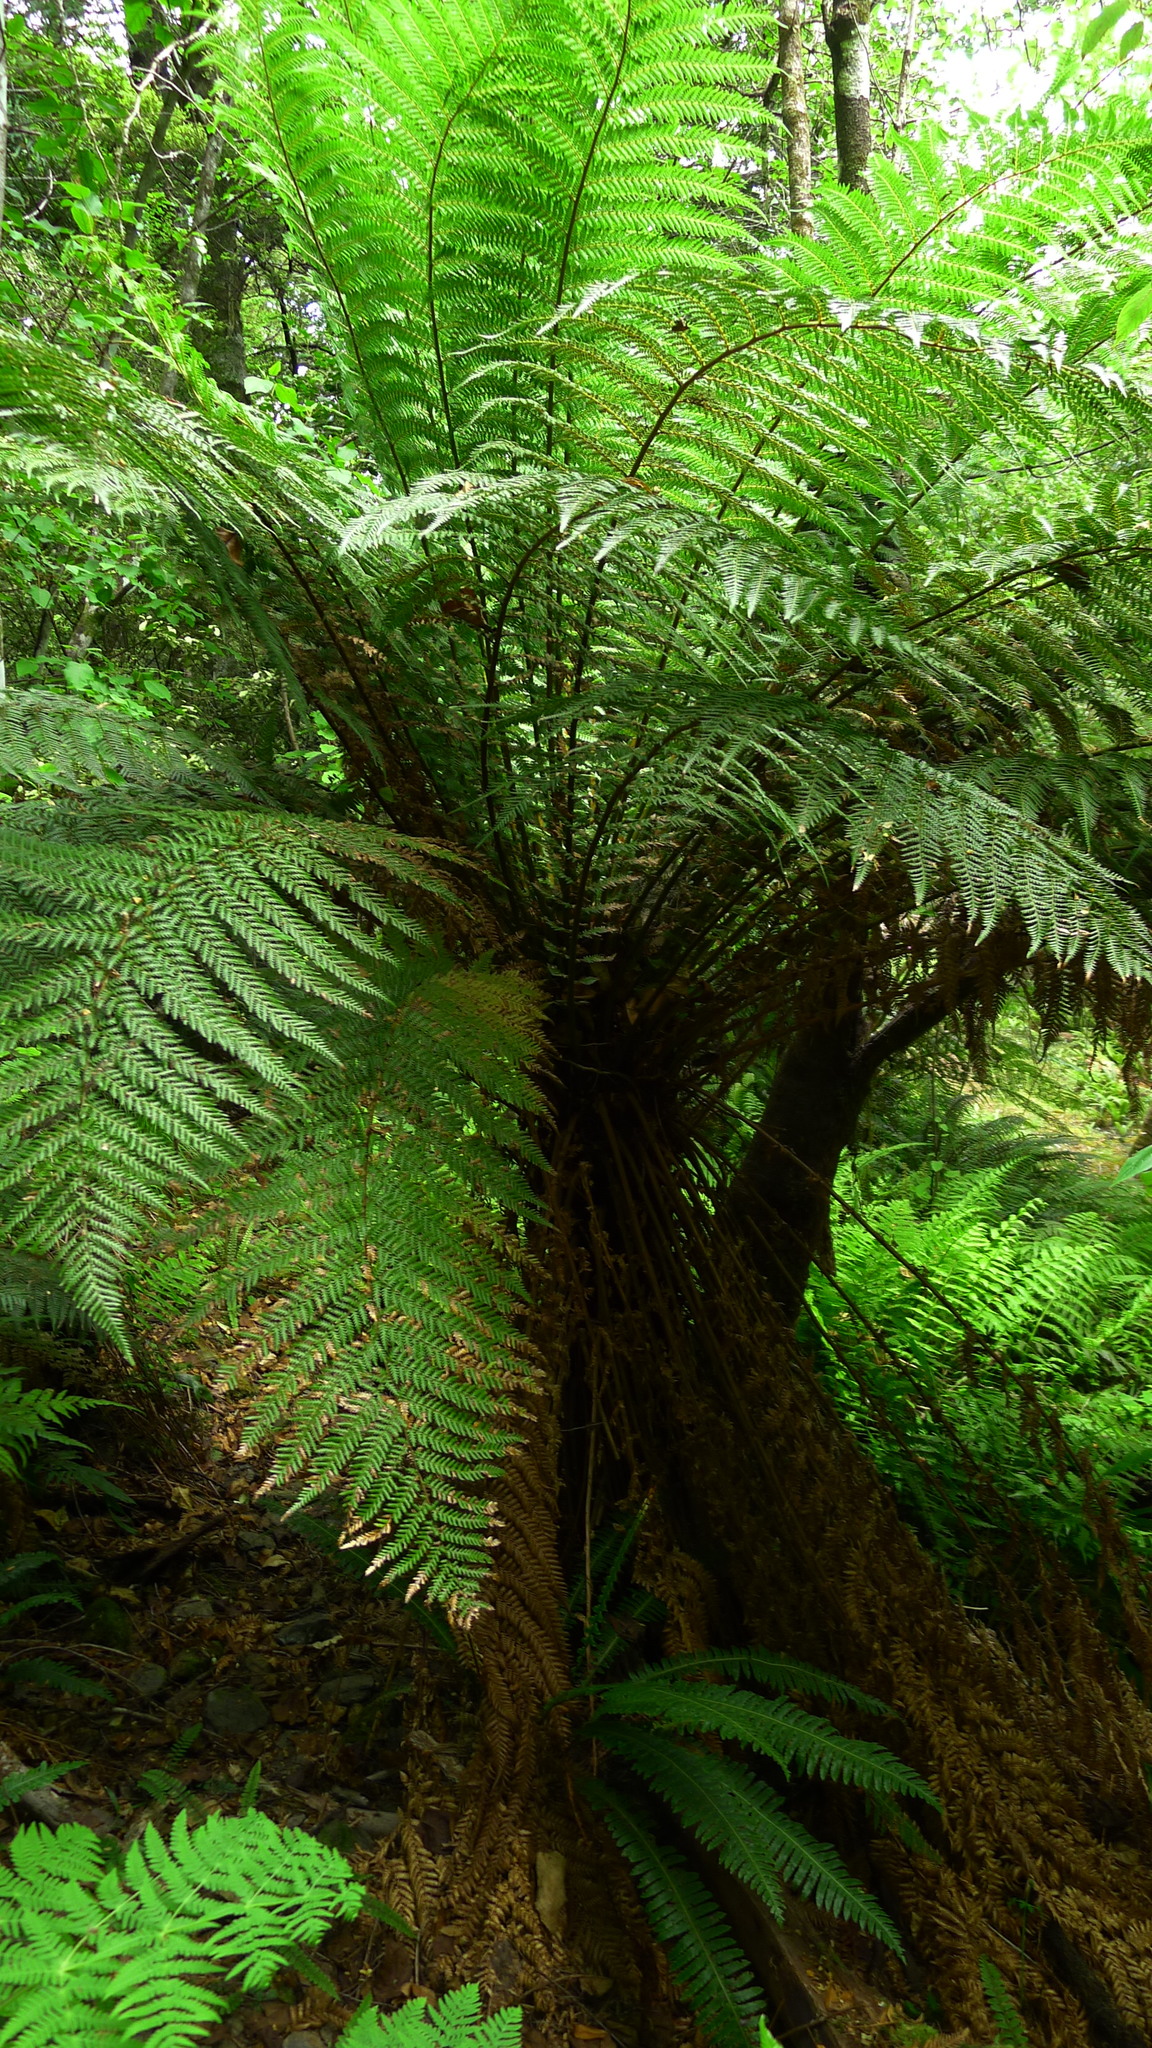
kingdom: Plantae
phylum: Tracheophyta
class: Polypodiopsida
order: Cyatheales
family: Dicksoniaceae
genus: Dicksonia
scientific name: Dicksonia fibrosa
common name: Golden tree fern
